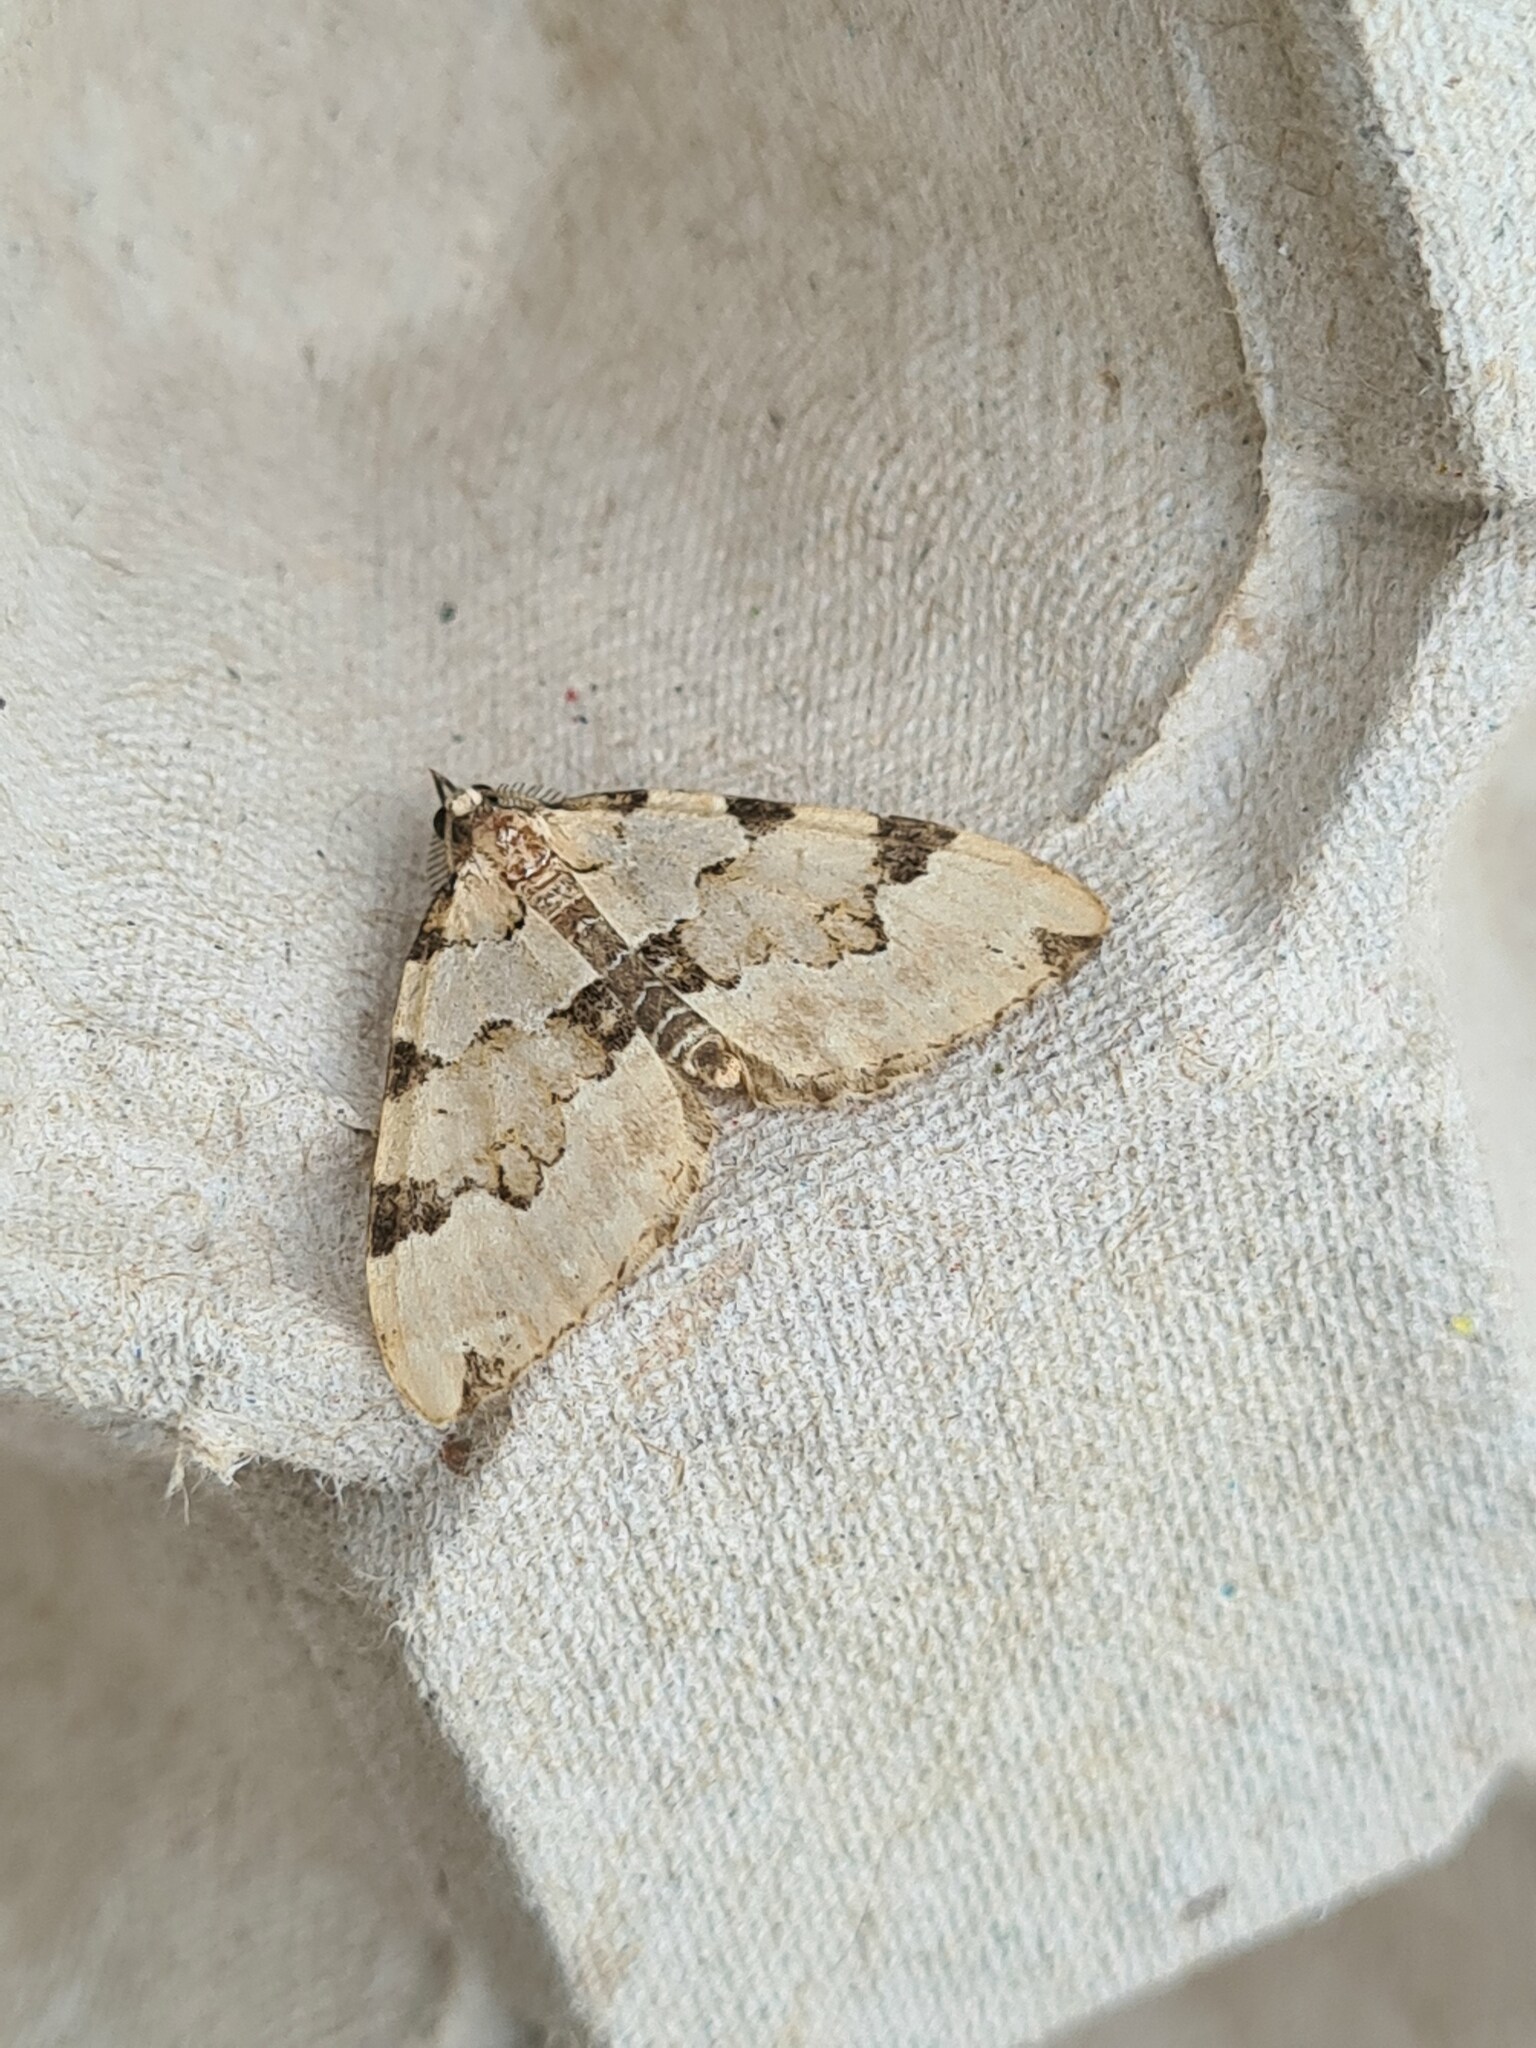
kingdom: Animalia
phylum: Arthropoda
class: Insecta
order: Lepidoptera
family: Geometridae
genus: Colostygia
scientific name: Colostygia pectinataria
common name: Green carpet
